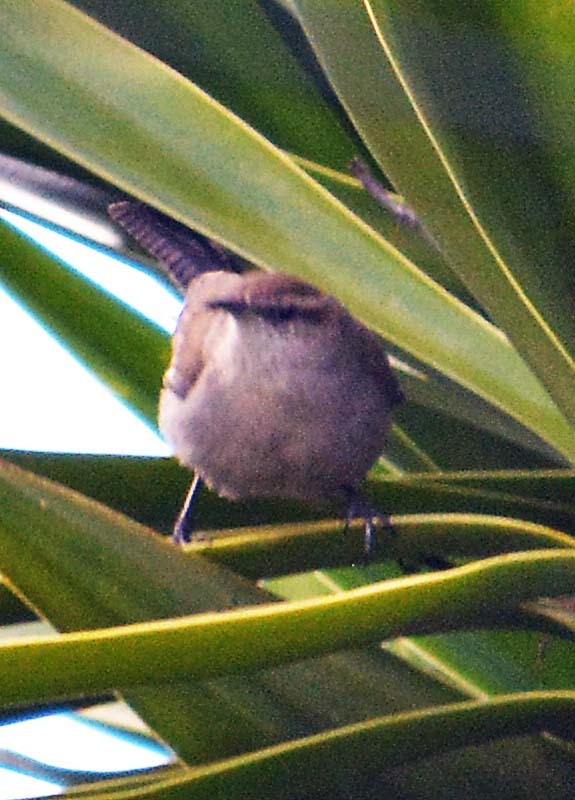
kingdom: Animalia
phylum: Chordata
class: Aves
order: Passeriformes
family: Troglodytidae
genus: Thryomanes
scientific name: Thryomanes bewickii
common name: Bewick's wren
